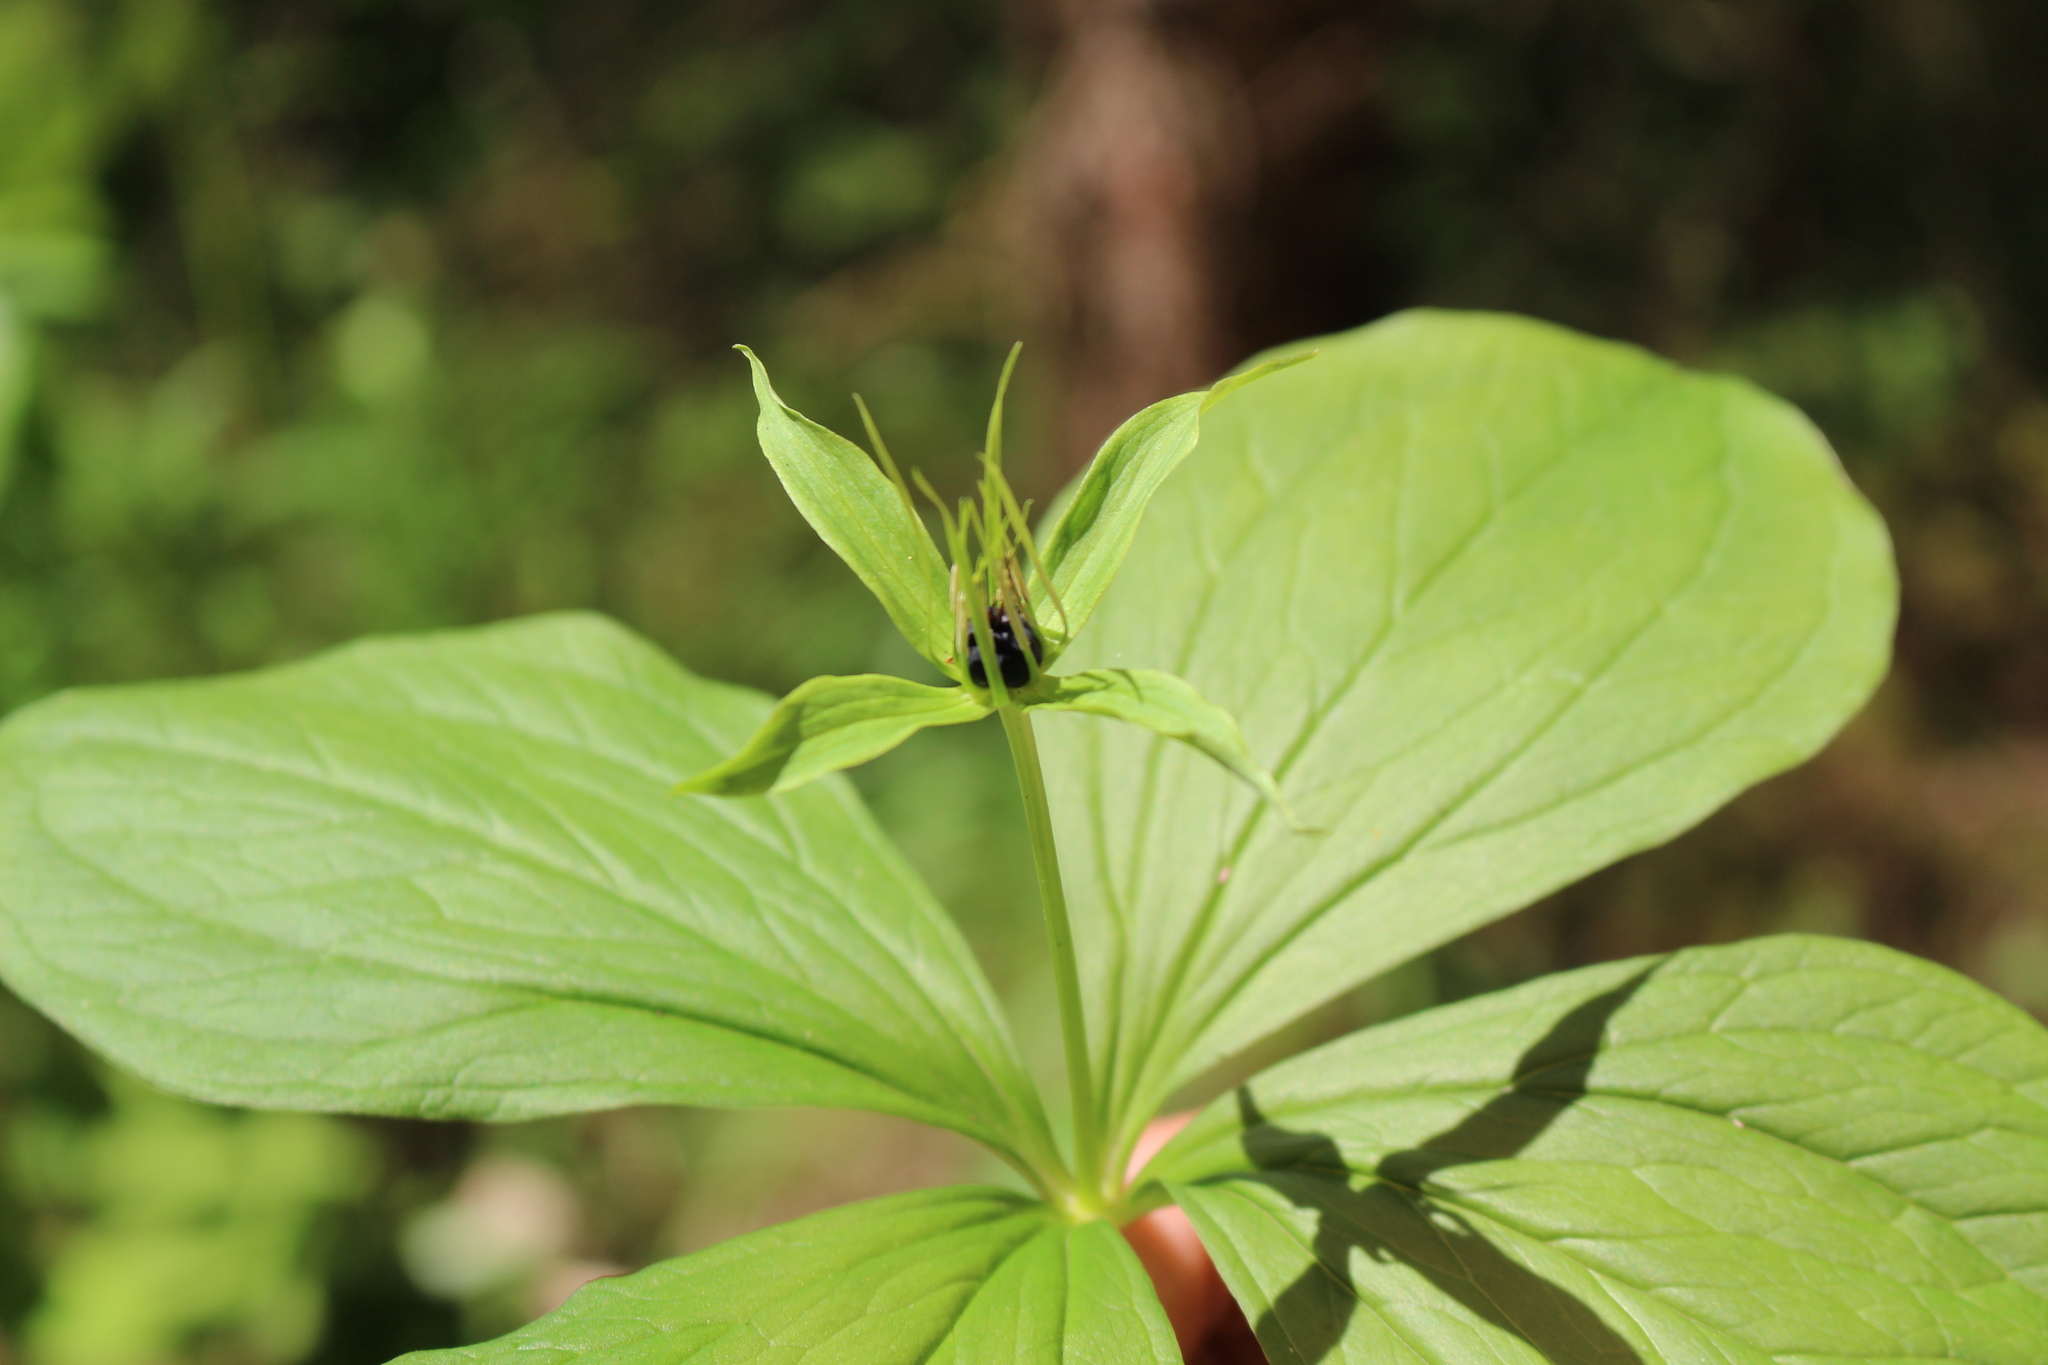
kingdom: Plantae
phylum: Tracheophyta
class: Liliopsida
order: Liliales
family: Melanthiaceae
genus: Paris
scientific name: Paris quadrifolia
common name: Herb-paris
